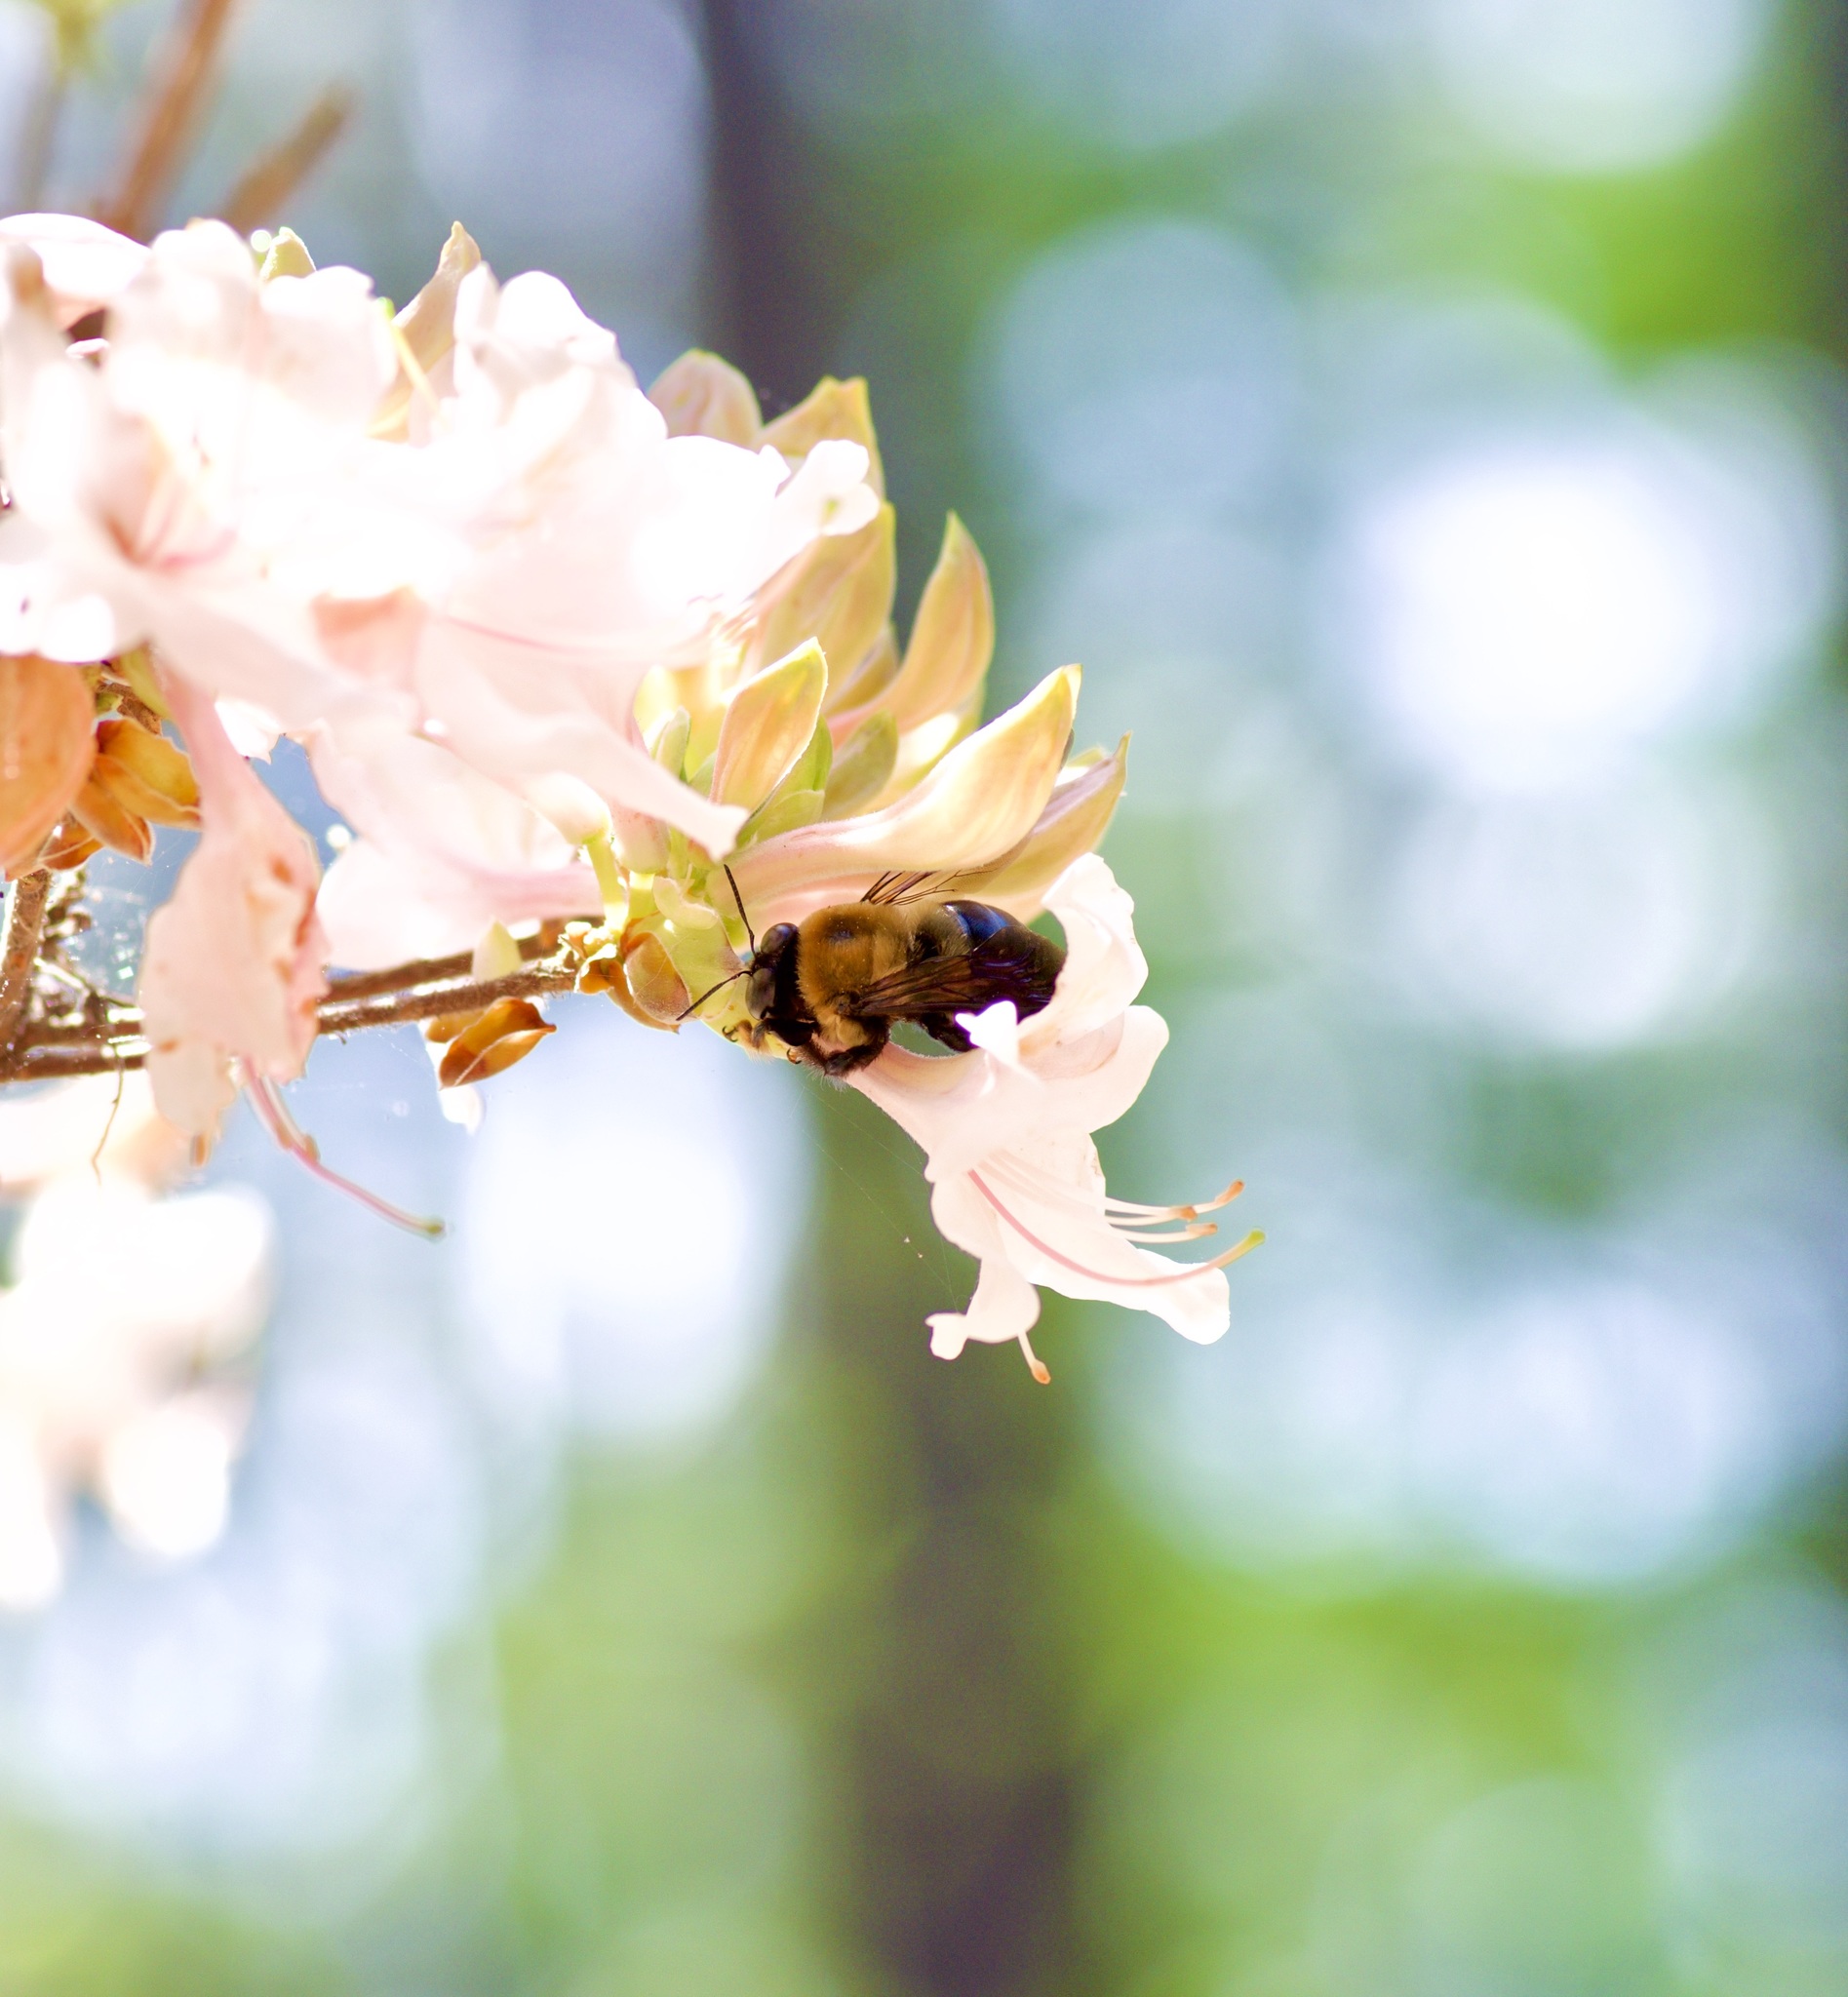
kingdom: Animalia
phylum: Arthropoda
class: Insecta
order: Hymenoptera
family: Apidae
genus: Xylocopa
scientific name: Xylocopa virginica
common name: Carpenter bee
